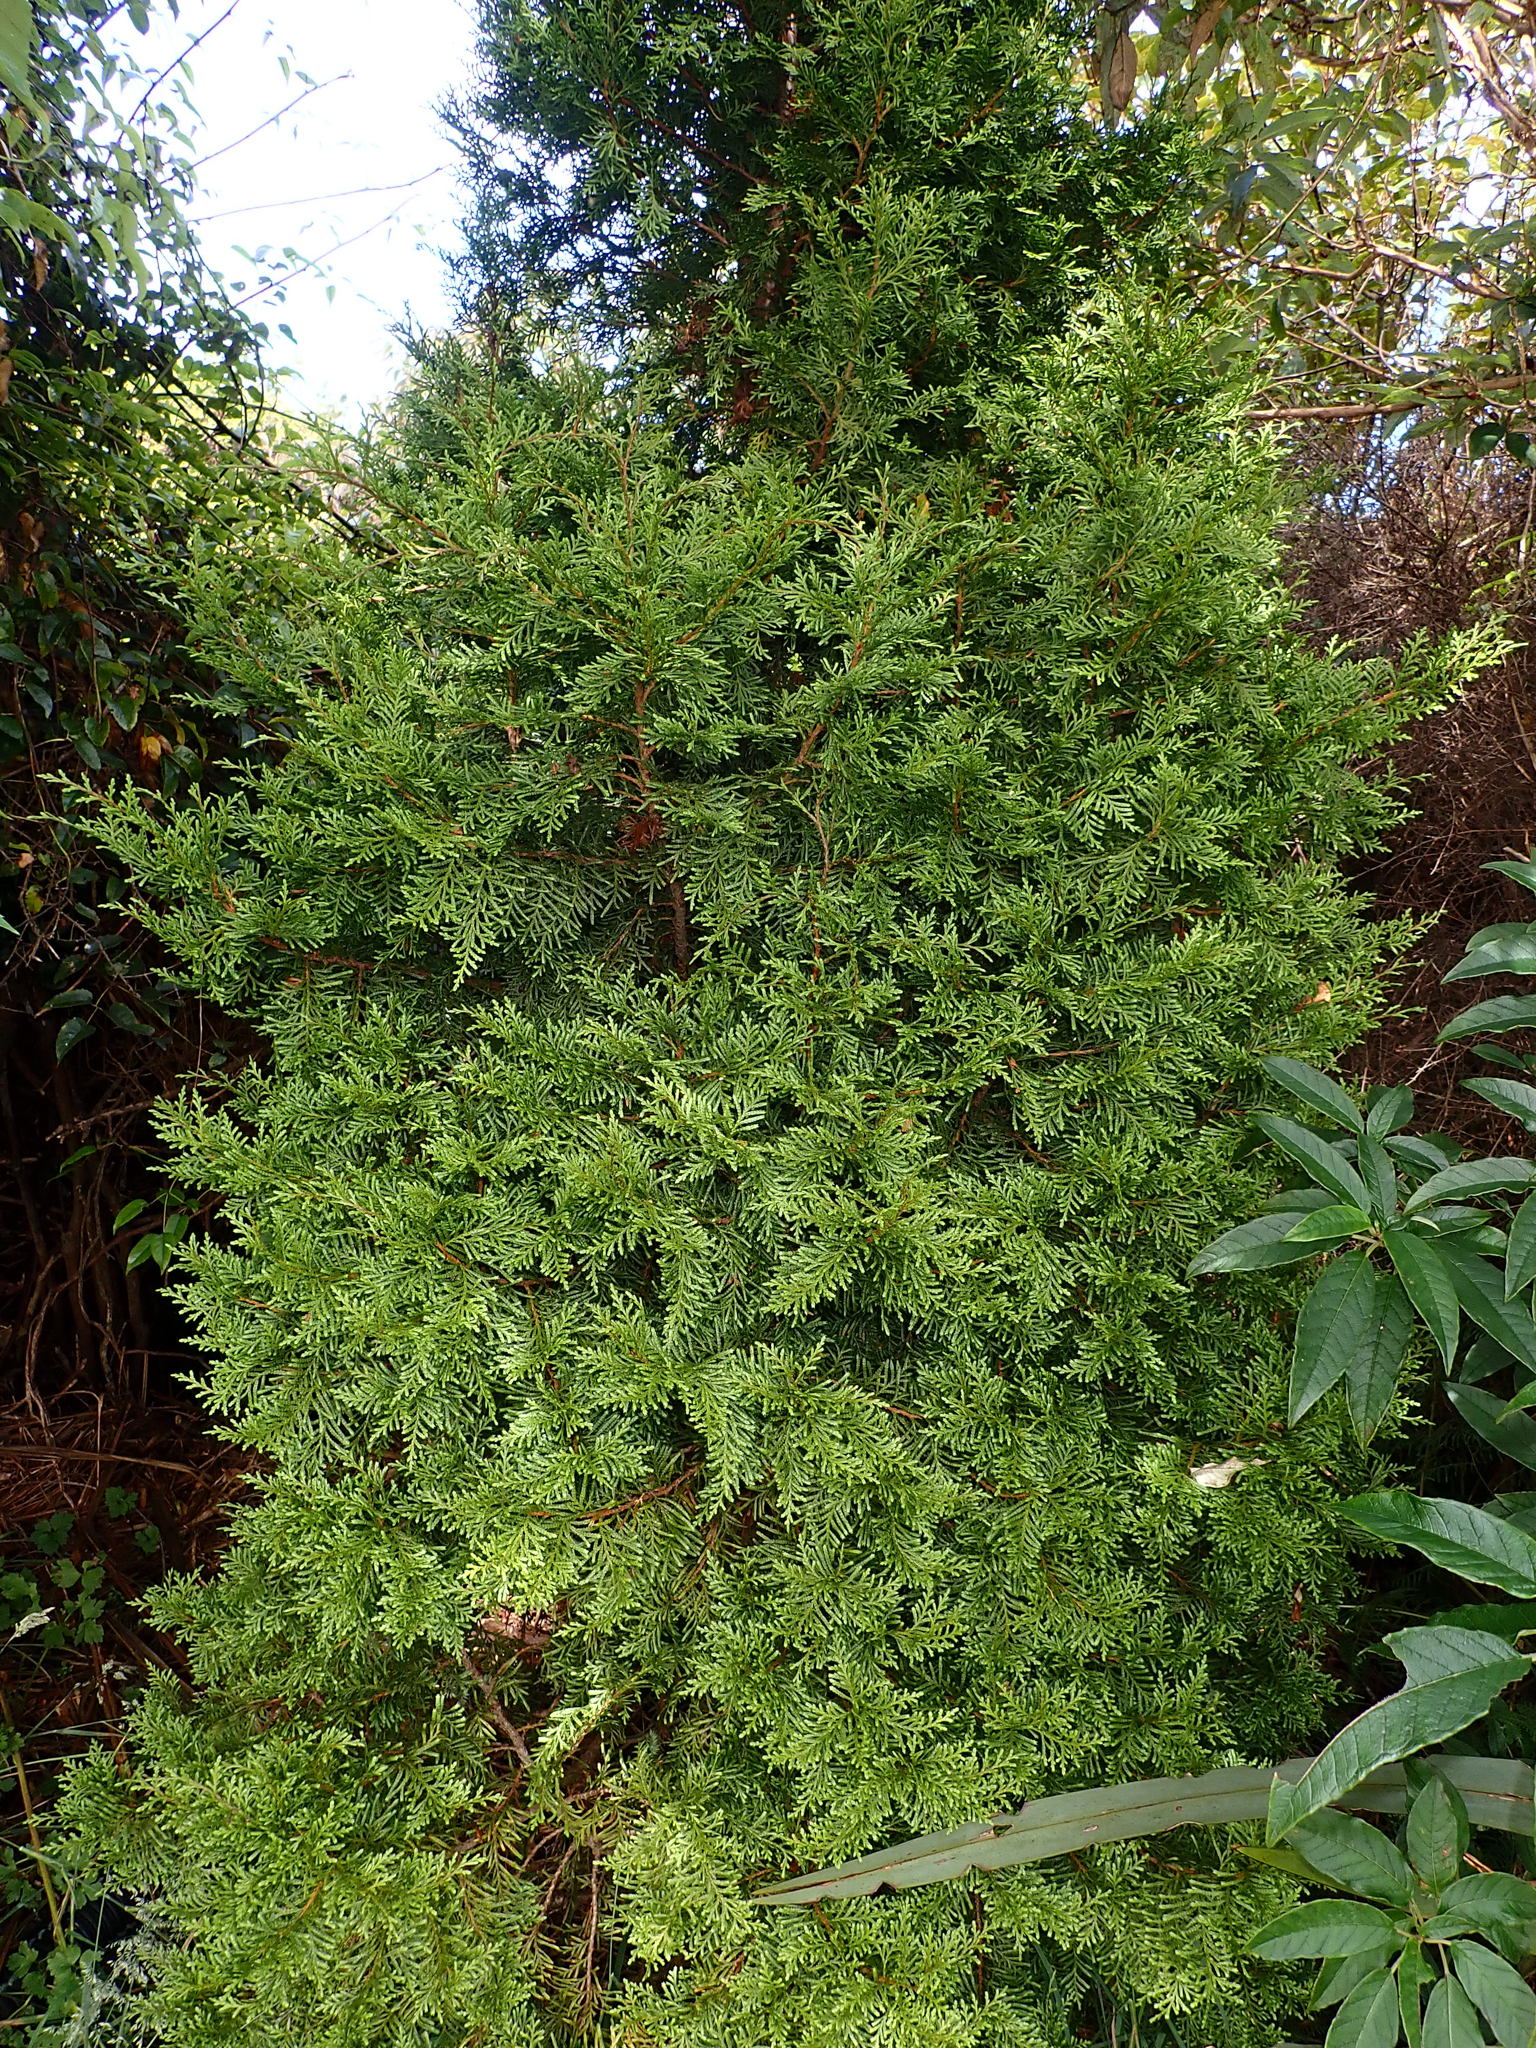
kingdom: Plantae
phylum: Tracheophyta
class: Pinopsida
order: Pinales
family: Cupressaceae
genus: Libocedrus
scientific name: Libocedrus bidwillii
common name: Cedar
